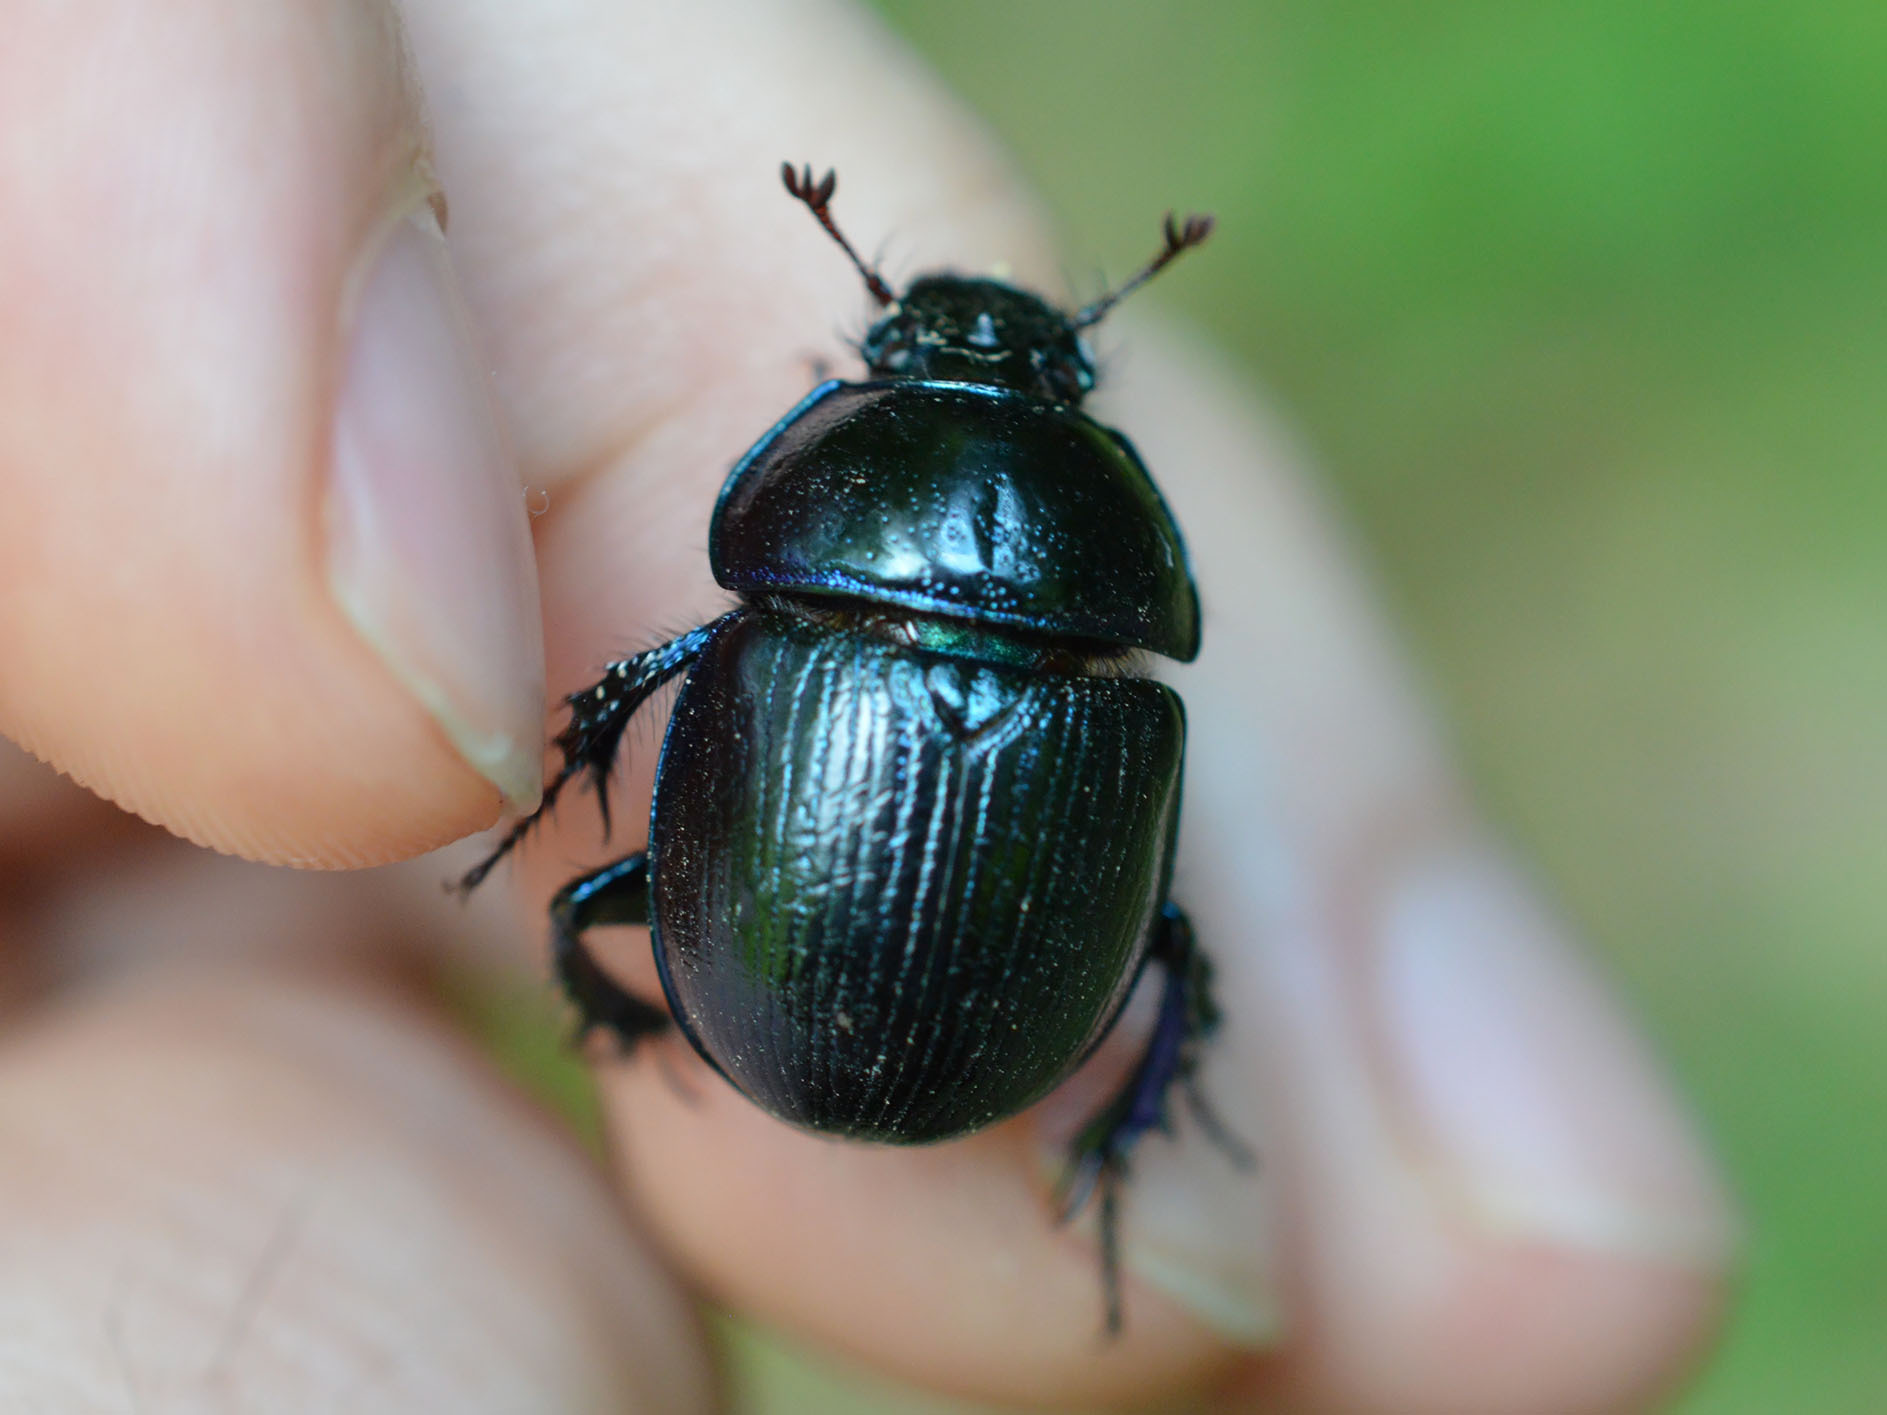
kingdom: Animalia
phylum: Arthropoda
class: Insecta
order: Coleoptera
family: Geotrupidae
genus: Anoplotrupes
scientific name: Anoplotrupes stercorosus
